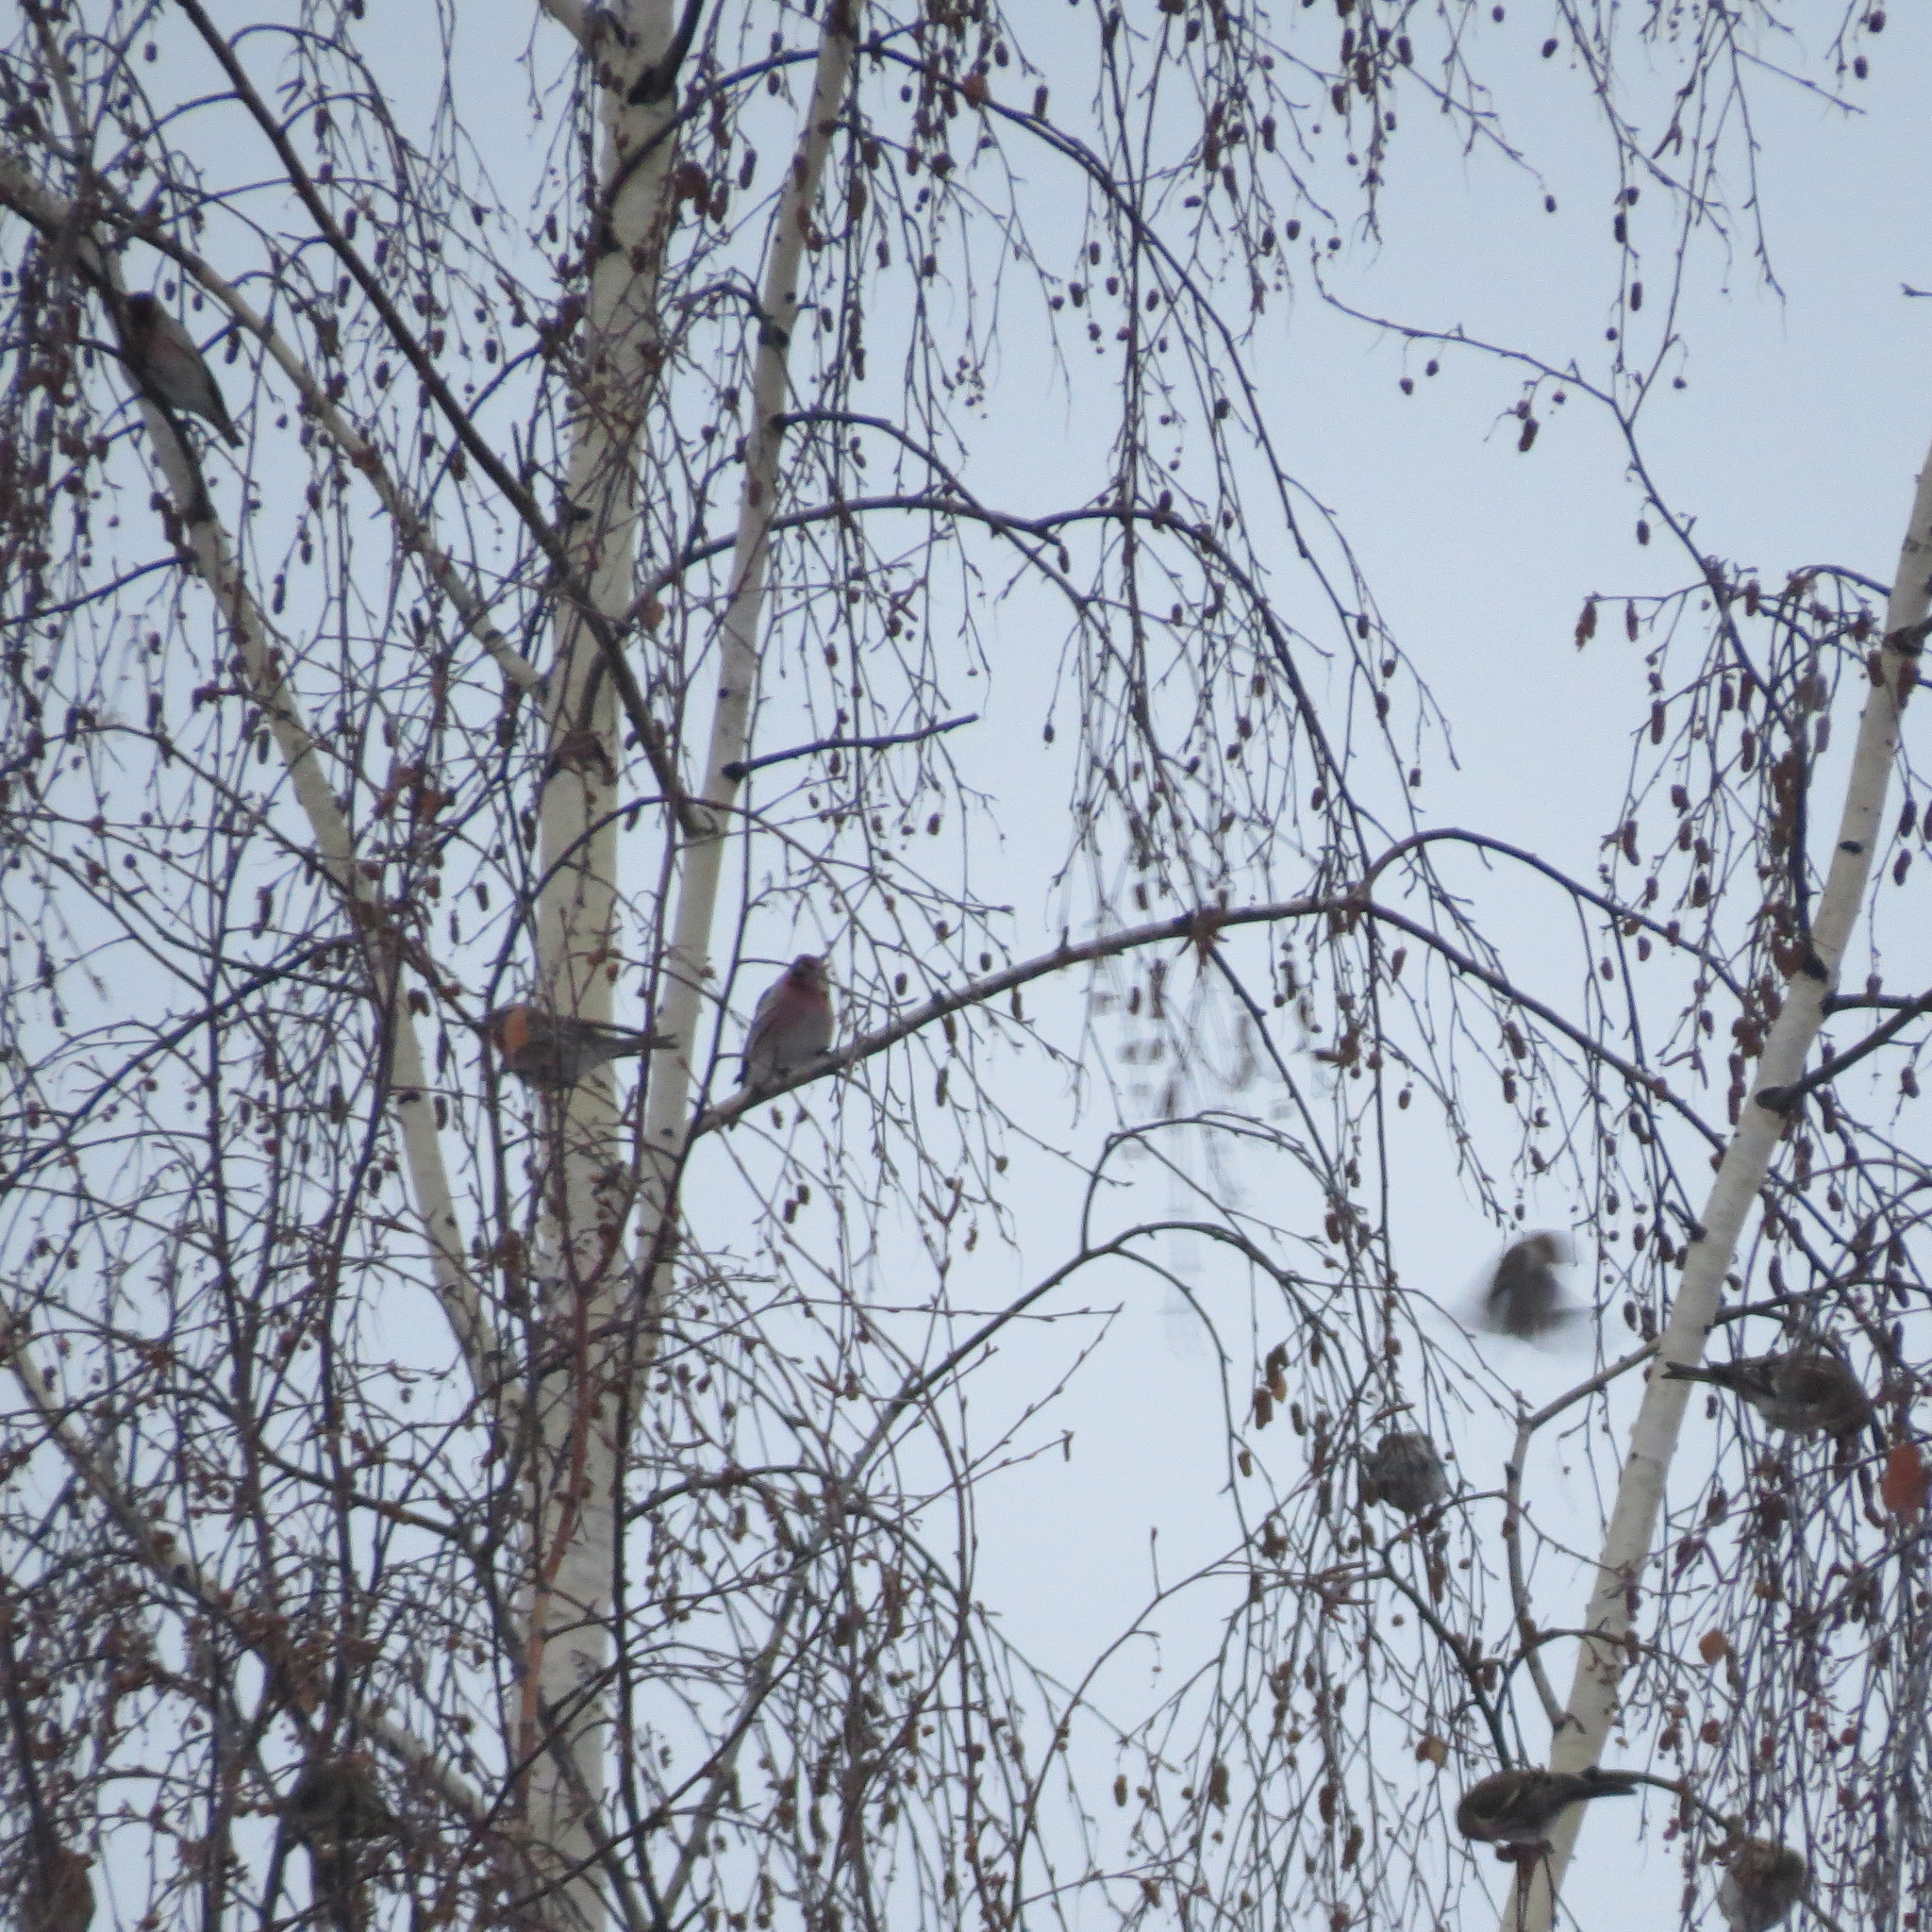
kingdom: Animalia
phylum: Chordata
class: Aves
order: Passeriformes
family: Fringillidae
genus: Acanthis
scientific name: Acanthis flammea
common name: Common redpoll
